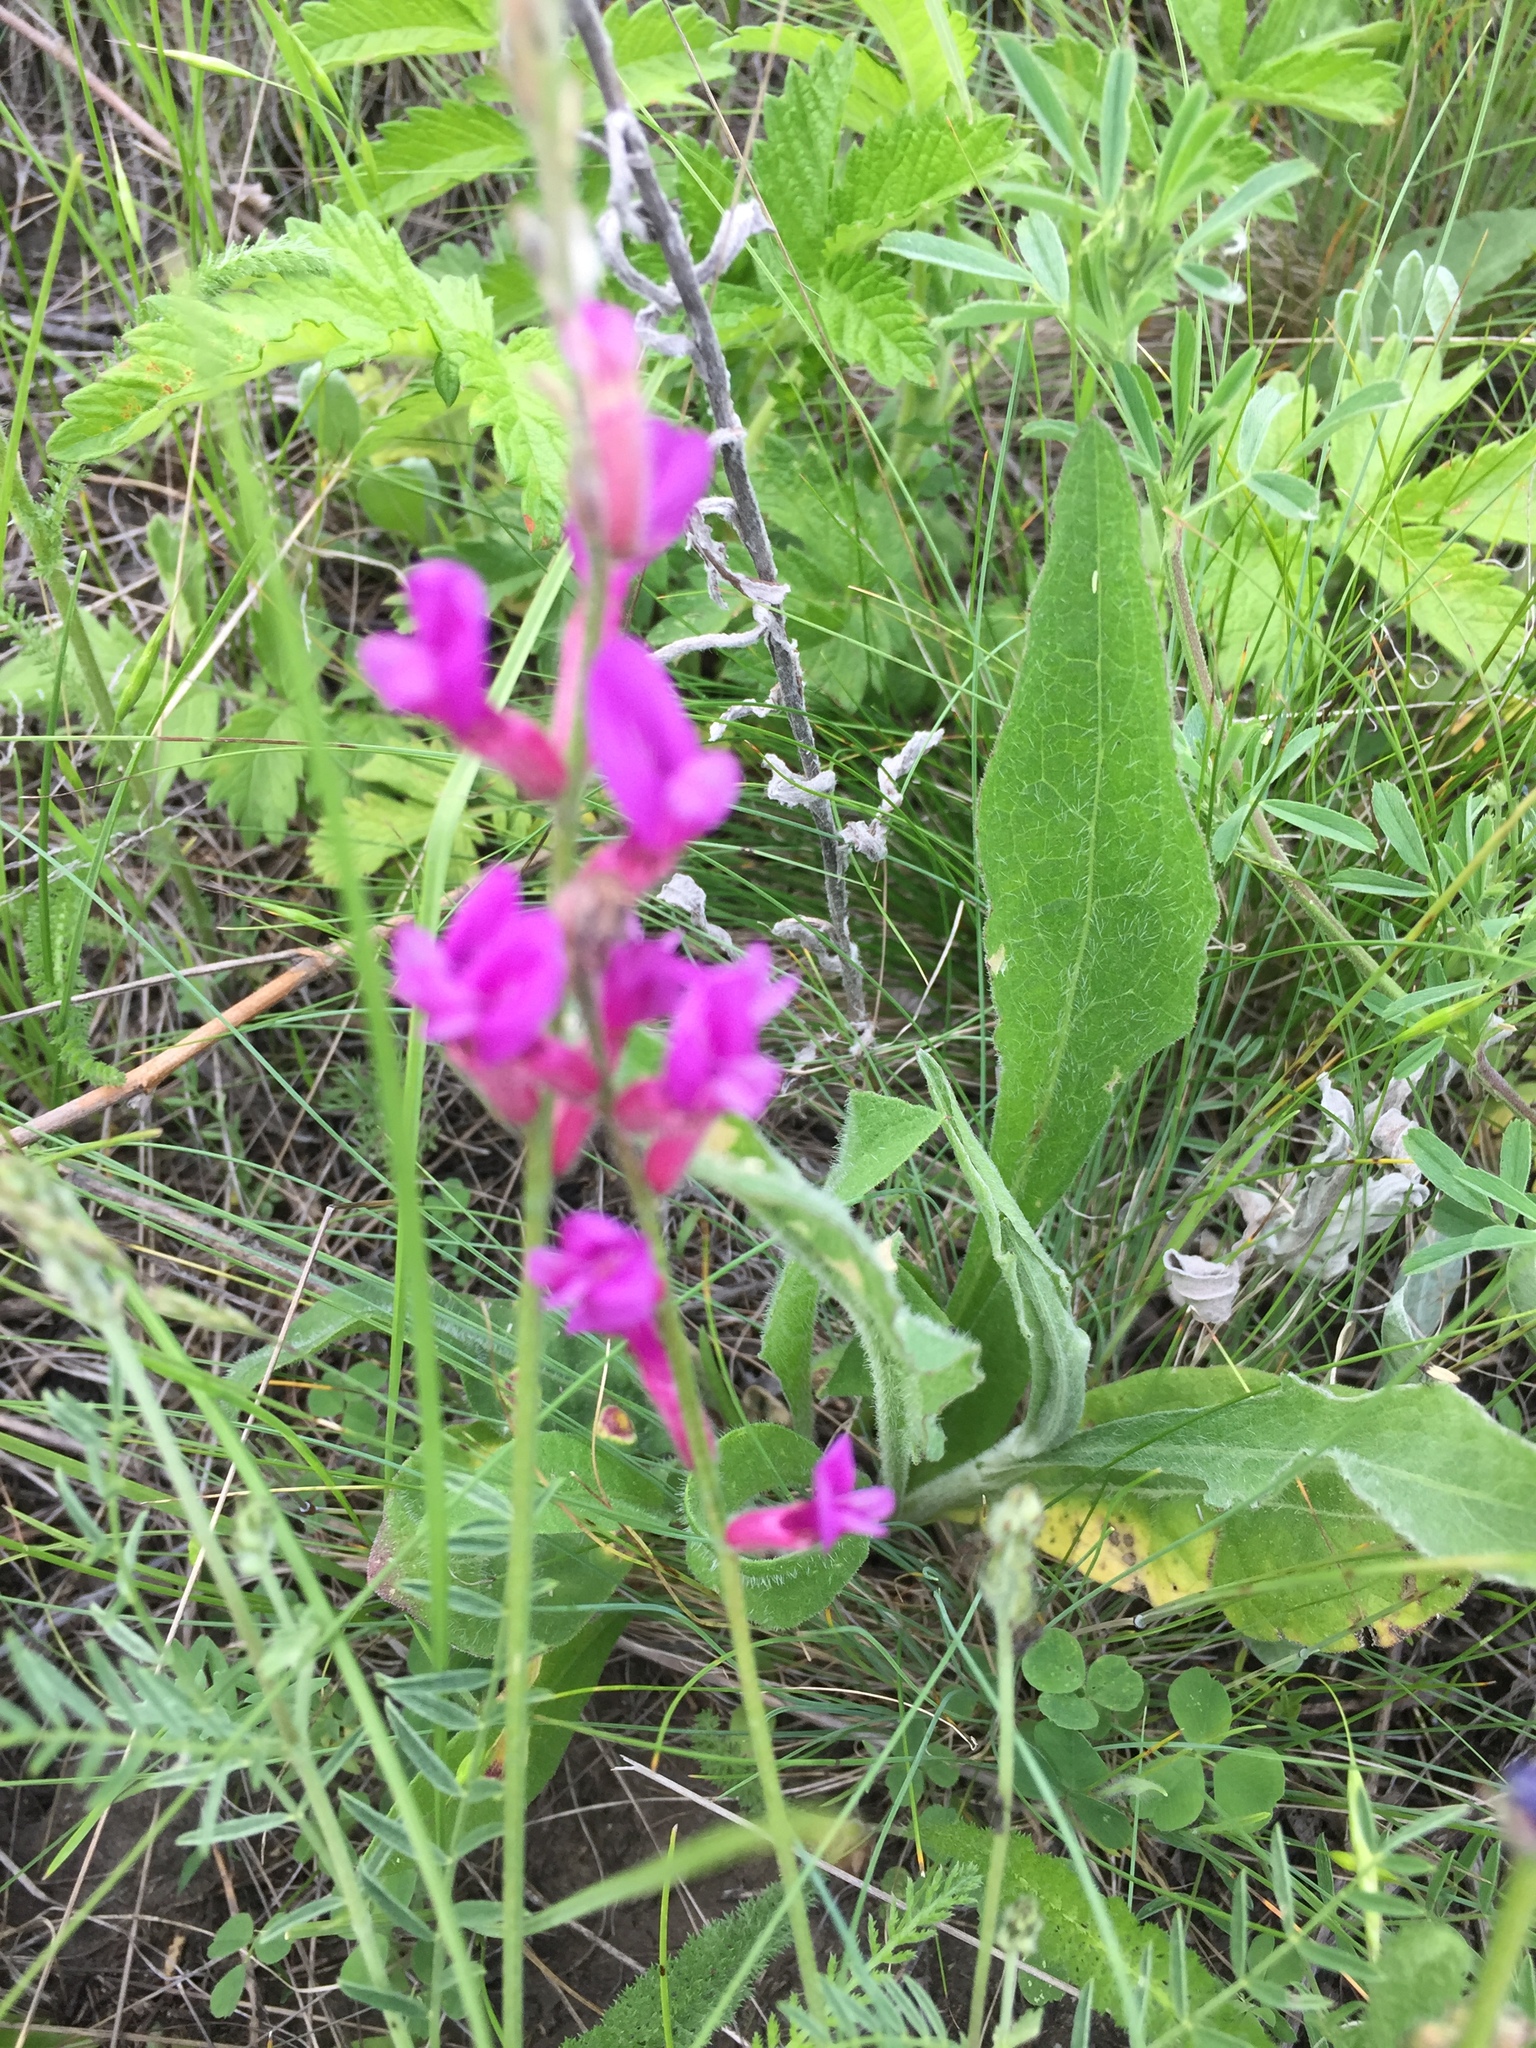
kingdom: Plantae
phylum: Tracheophyta
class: Magnoliopsida
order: Fabales
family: Fabaceae
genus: Astragalus
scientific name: Astragalus varius
